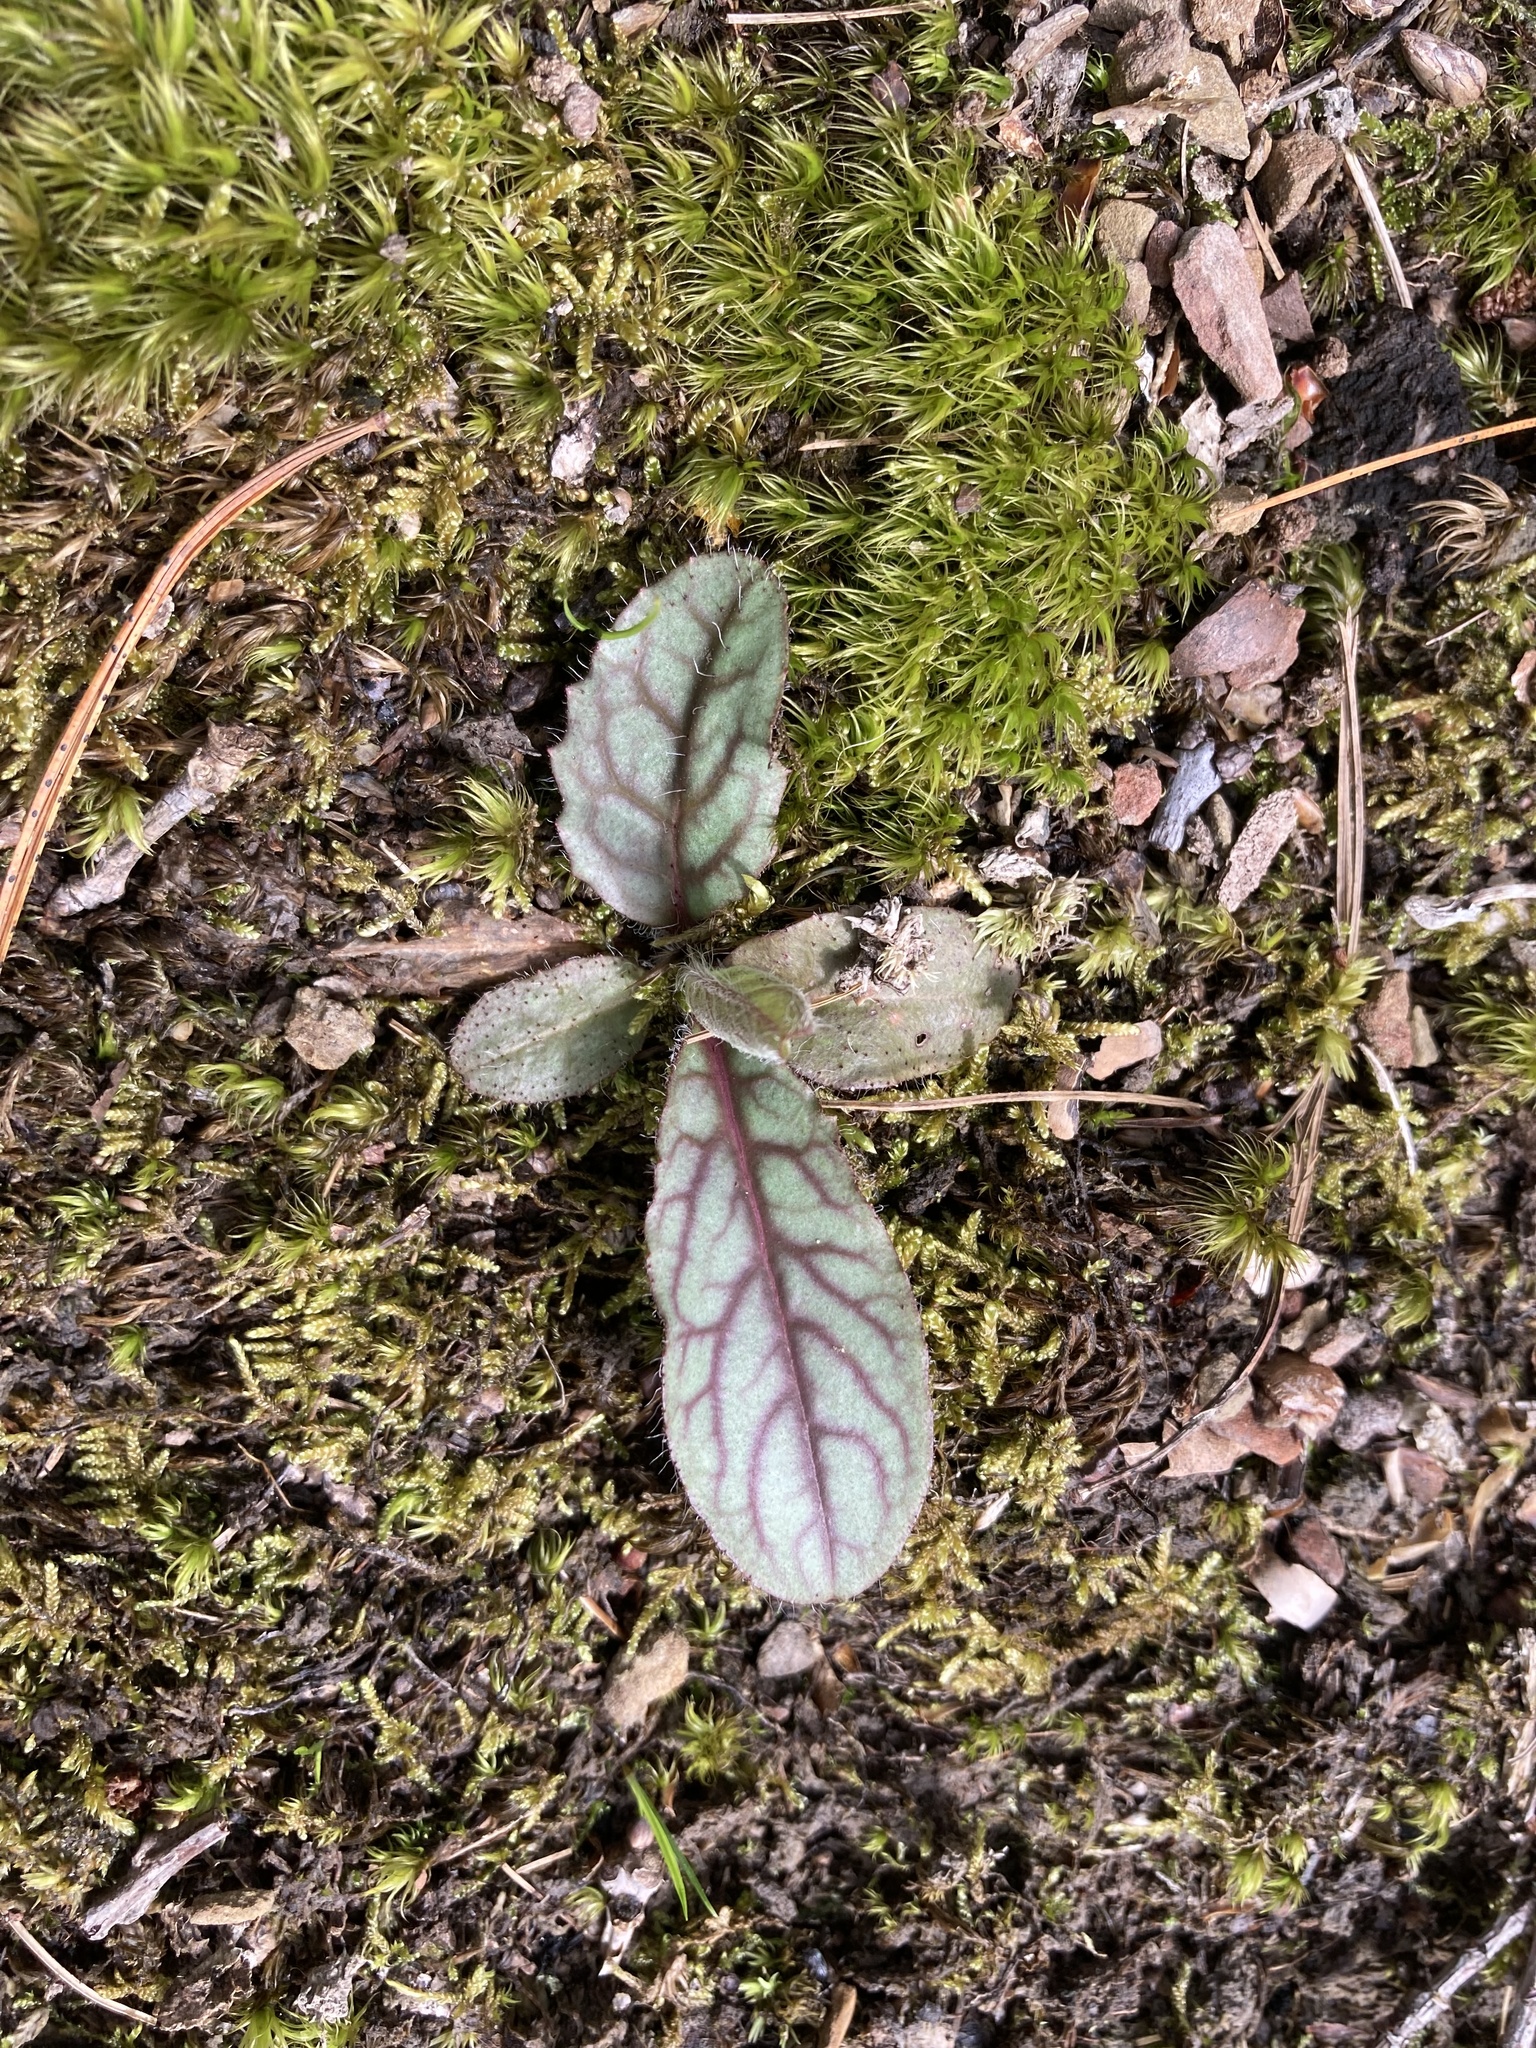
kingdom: Plantae
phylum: Tracheophyta
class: Magnoliopsida
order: Asterales
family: Asteraceae
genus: Hieracium
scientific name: Hieracium venosum
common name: Rattlesnake hawkweed
